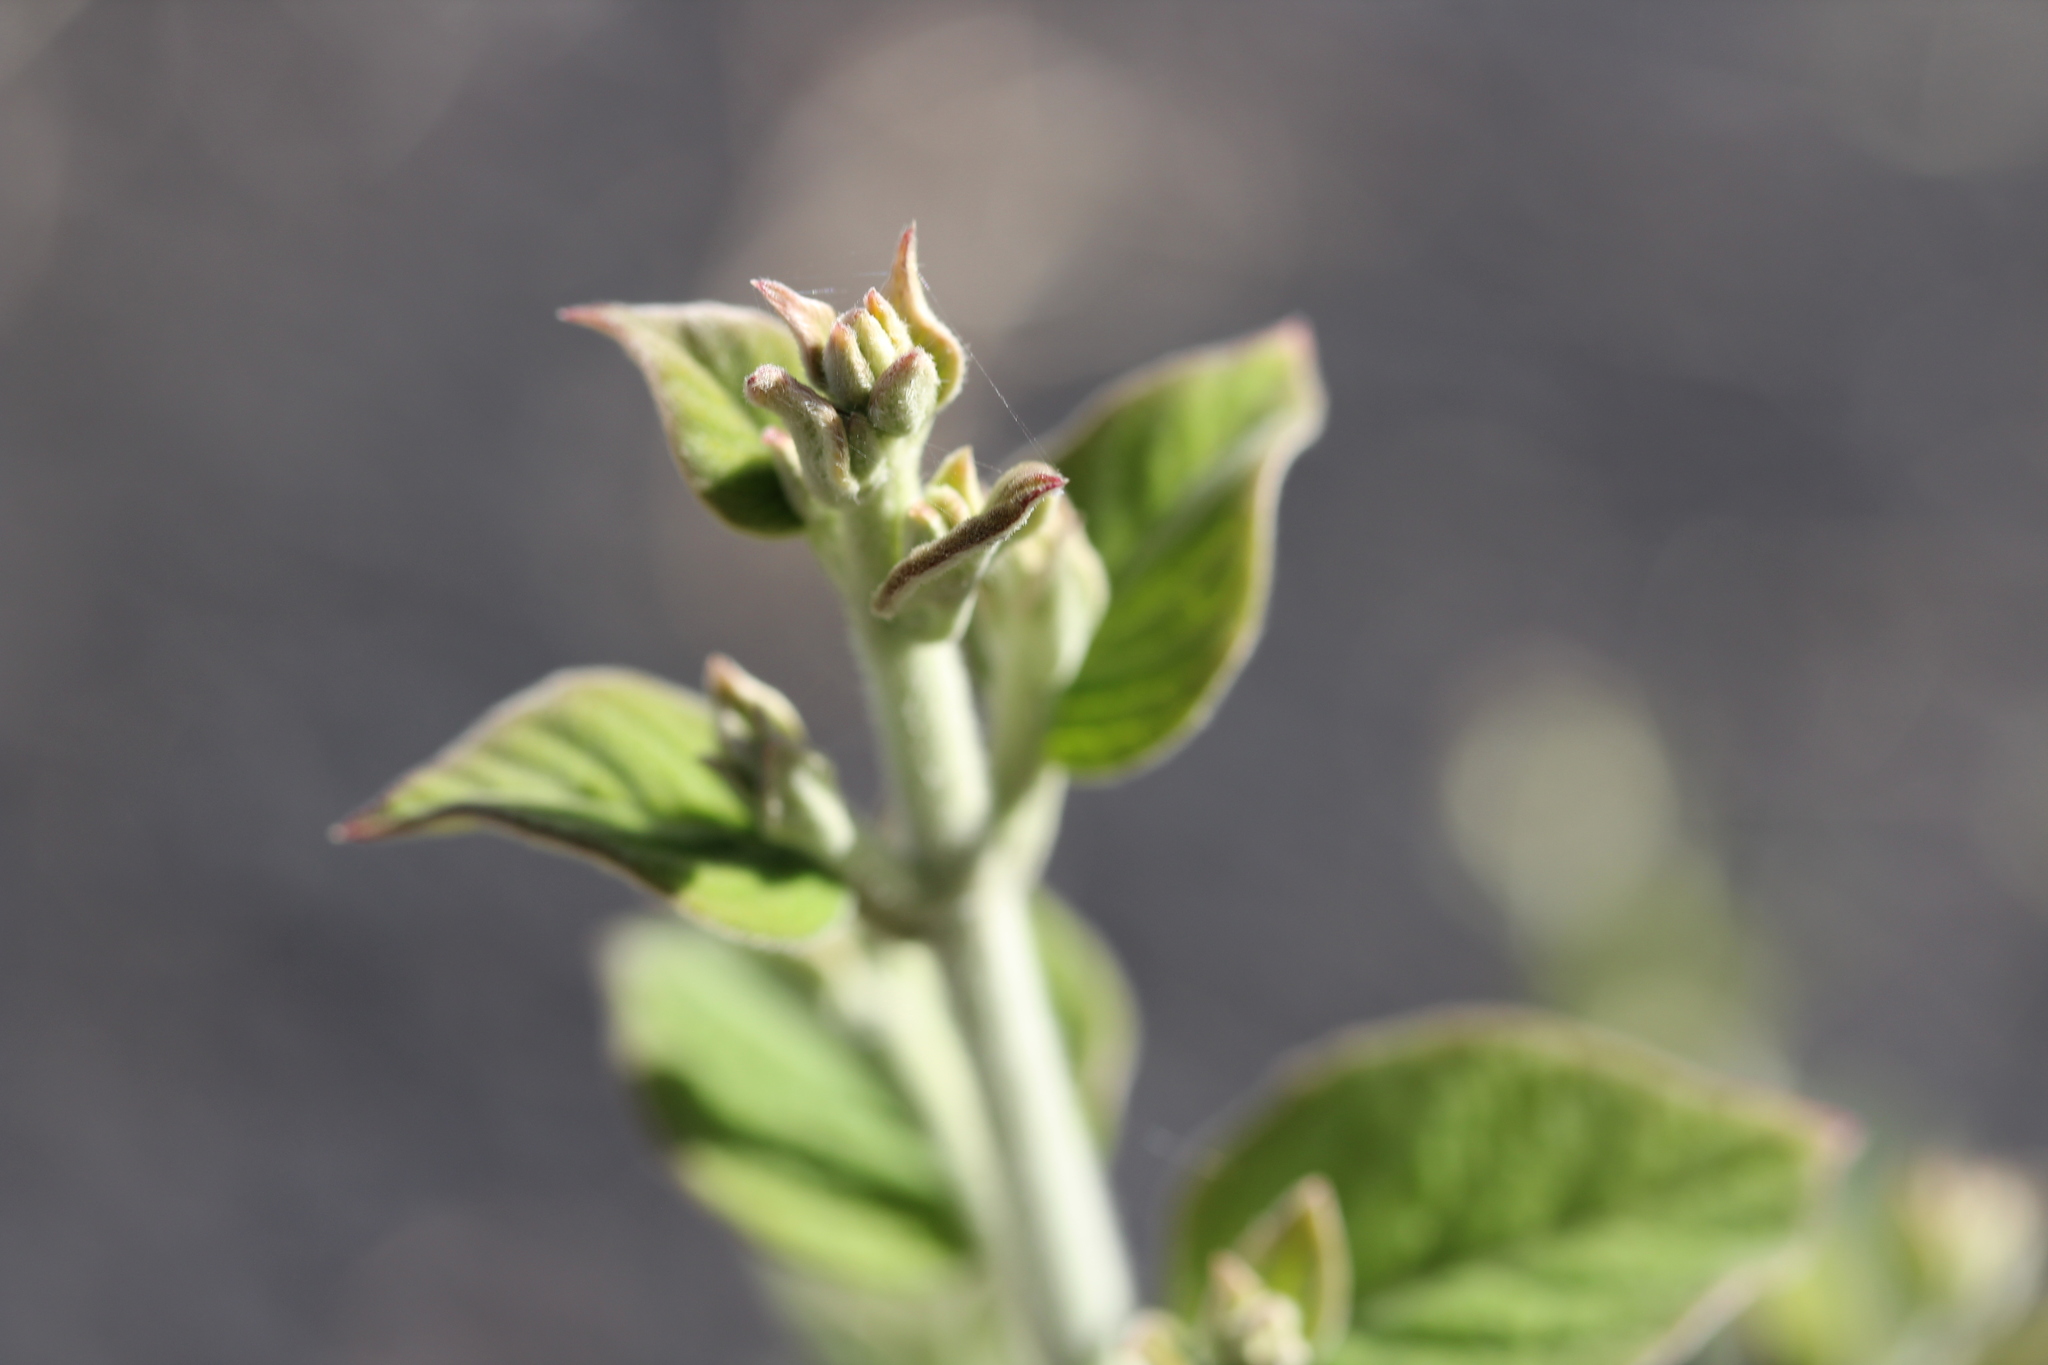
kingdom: Plantae
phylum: Tracheophyta
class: Magnoliopsida
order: Caryophyllales
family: Amaranthaceae
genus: Iresine
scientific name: Iresine
